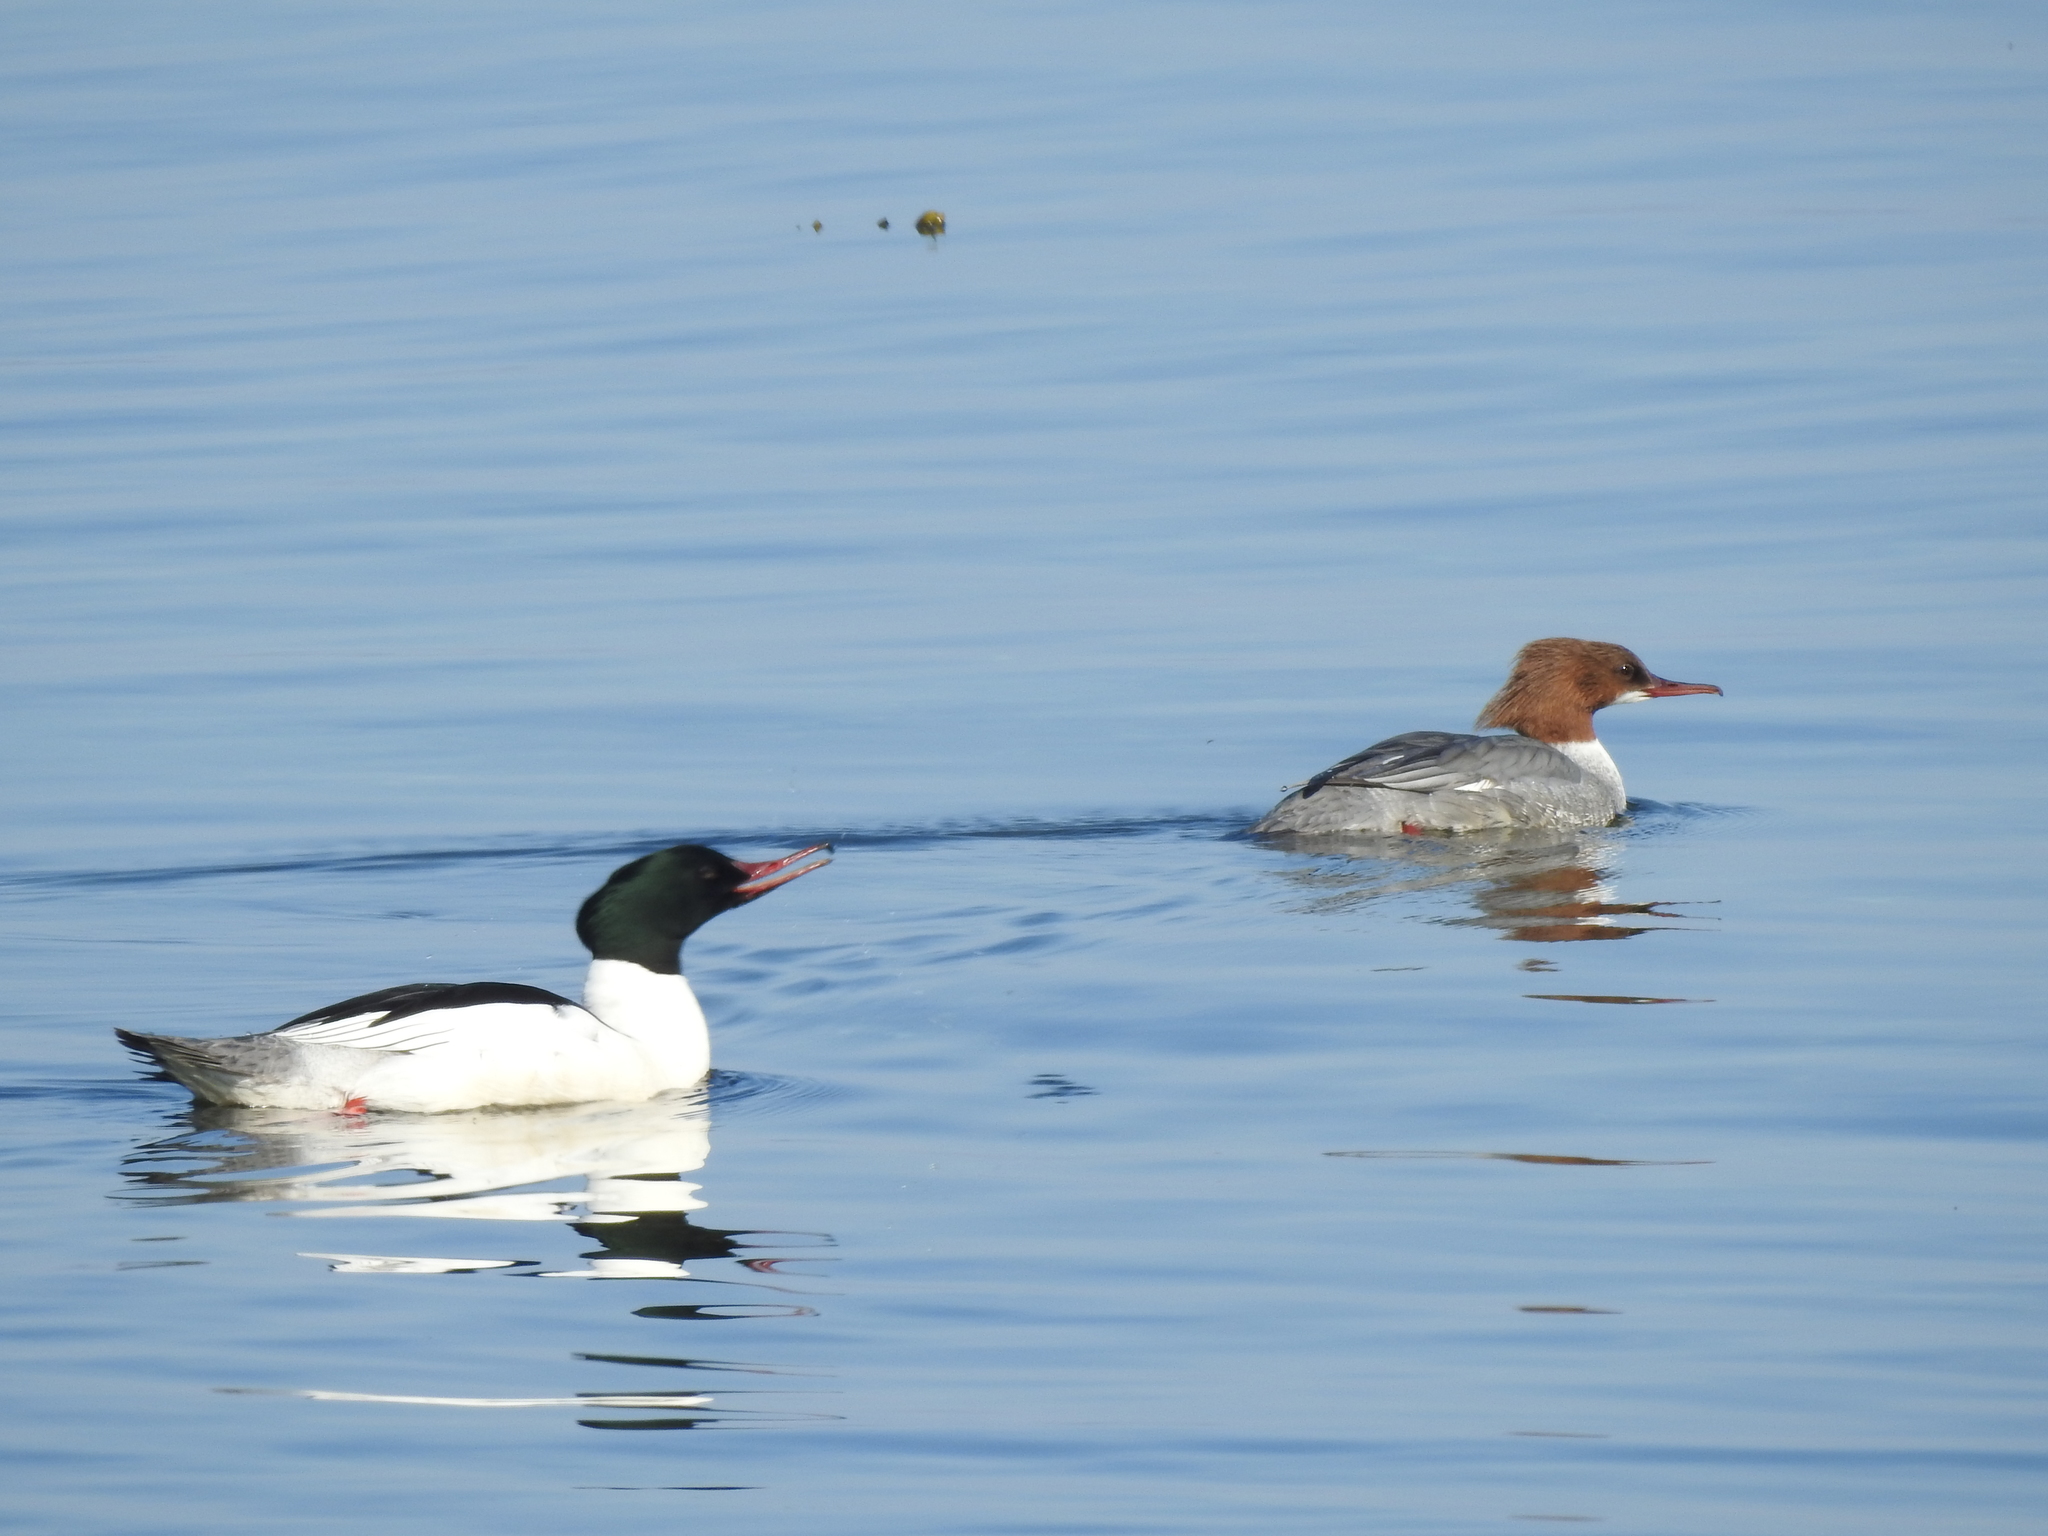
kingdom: Animalia
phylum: Chordata
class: Aves
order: Anseriformes
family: Anatidae
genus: Mergus
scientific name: Mergus merganser
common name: Common merganser
